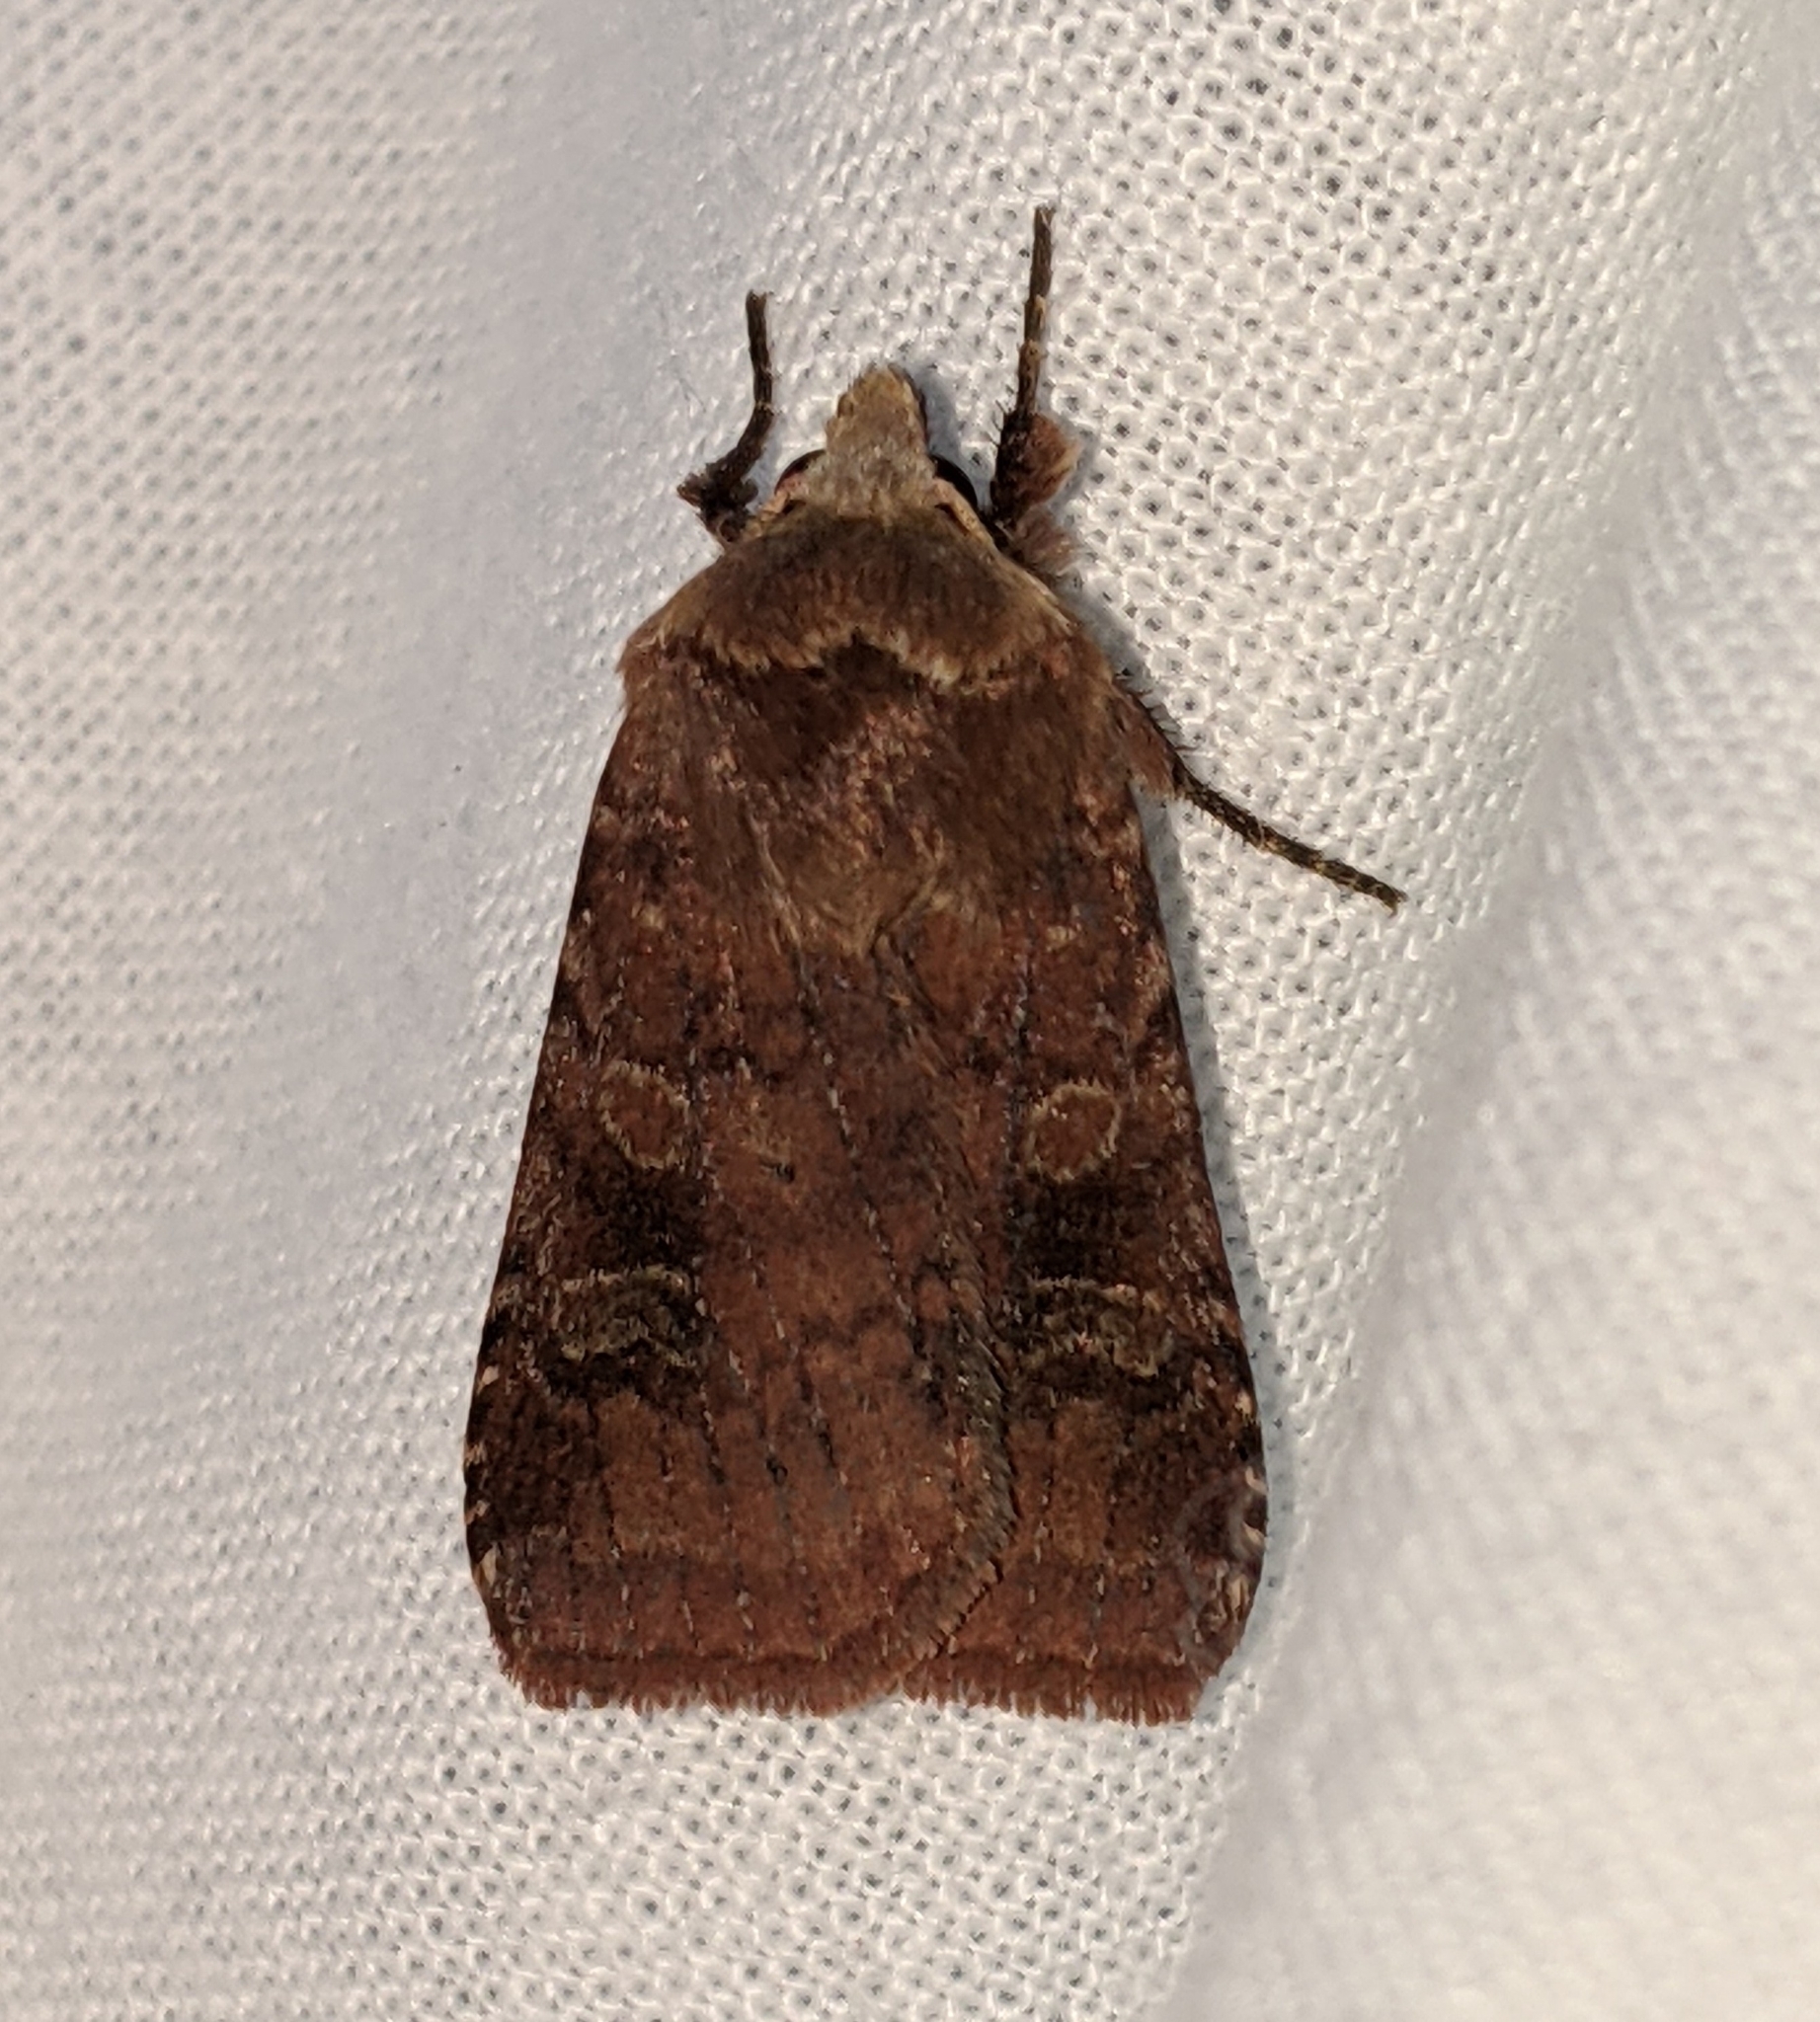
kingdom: Animalia
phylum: Arthropoda
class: Insecta
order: Lepidoptera
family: Noctuidae
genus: Diarsia
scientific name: Diarsia rosaria
